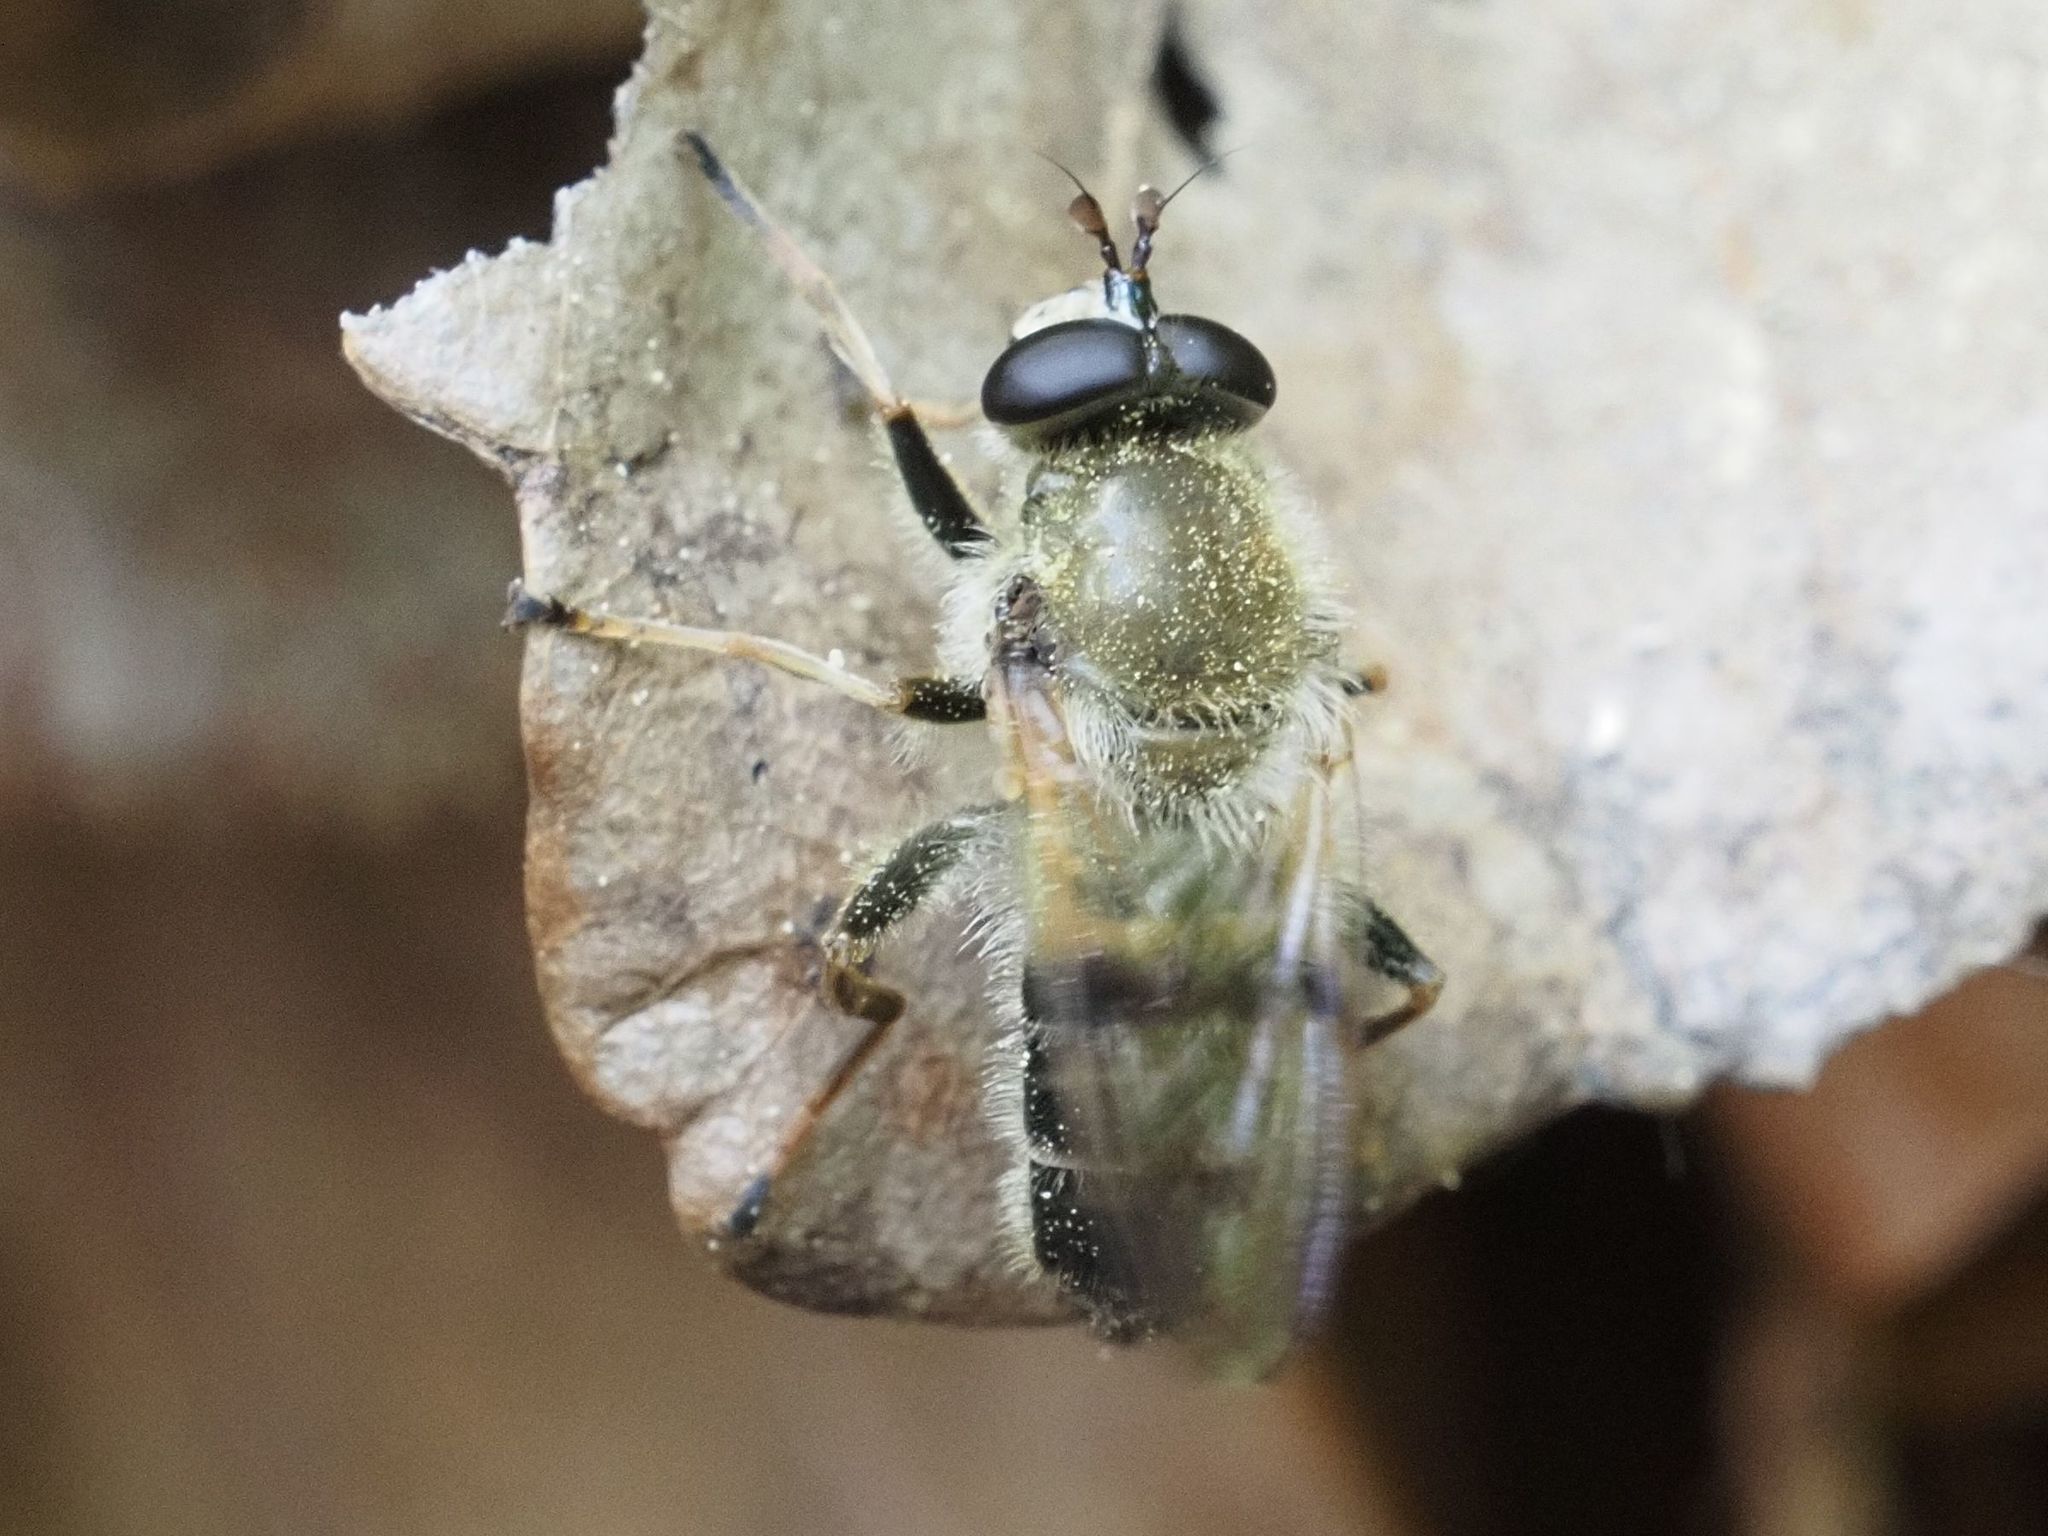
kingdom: Animalia
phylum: Arthropoda
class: Insecta
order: Diptera
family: Syrphidae
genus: Criorhina
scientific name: Criorhina asilica
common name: Pale-banded bear hoverfly
